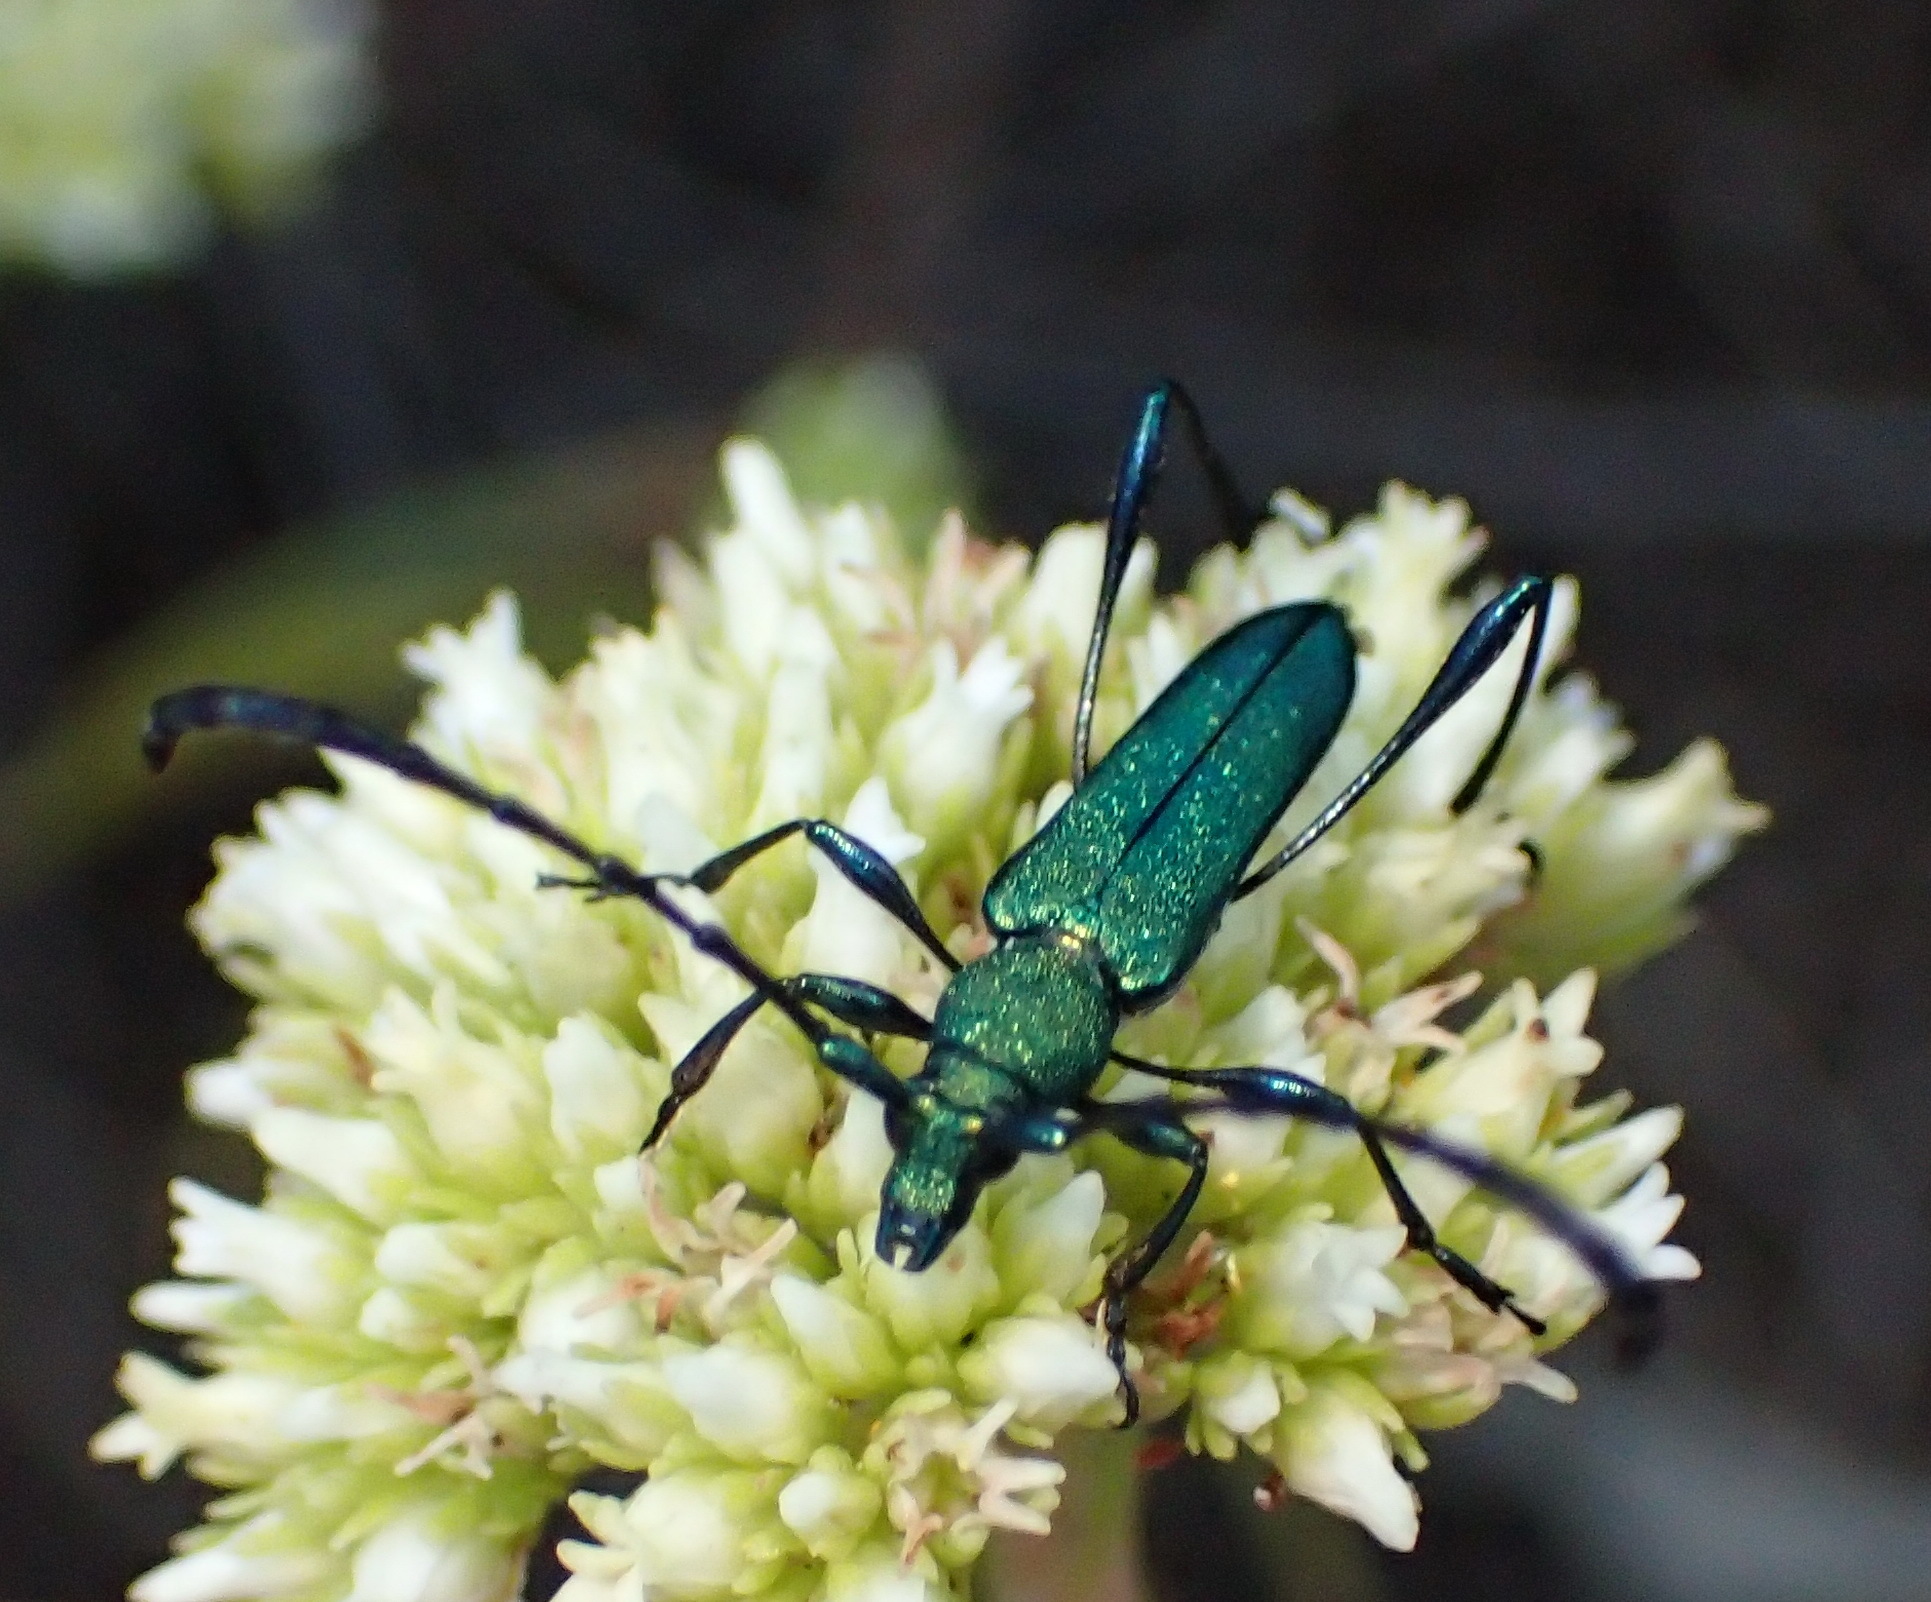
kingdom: Animalia
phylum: Arthropoda
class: Insecta
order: Coleoptera
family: Cerambycidae
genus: Hypocrites
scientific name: Hypocrites
